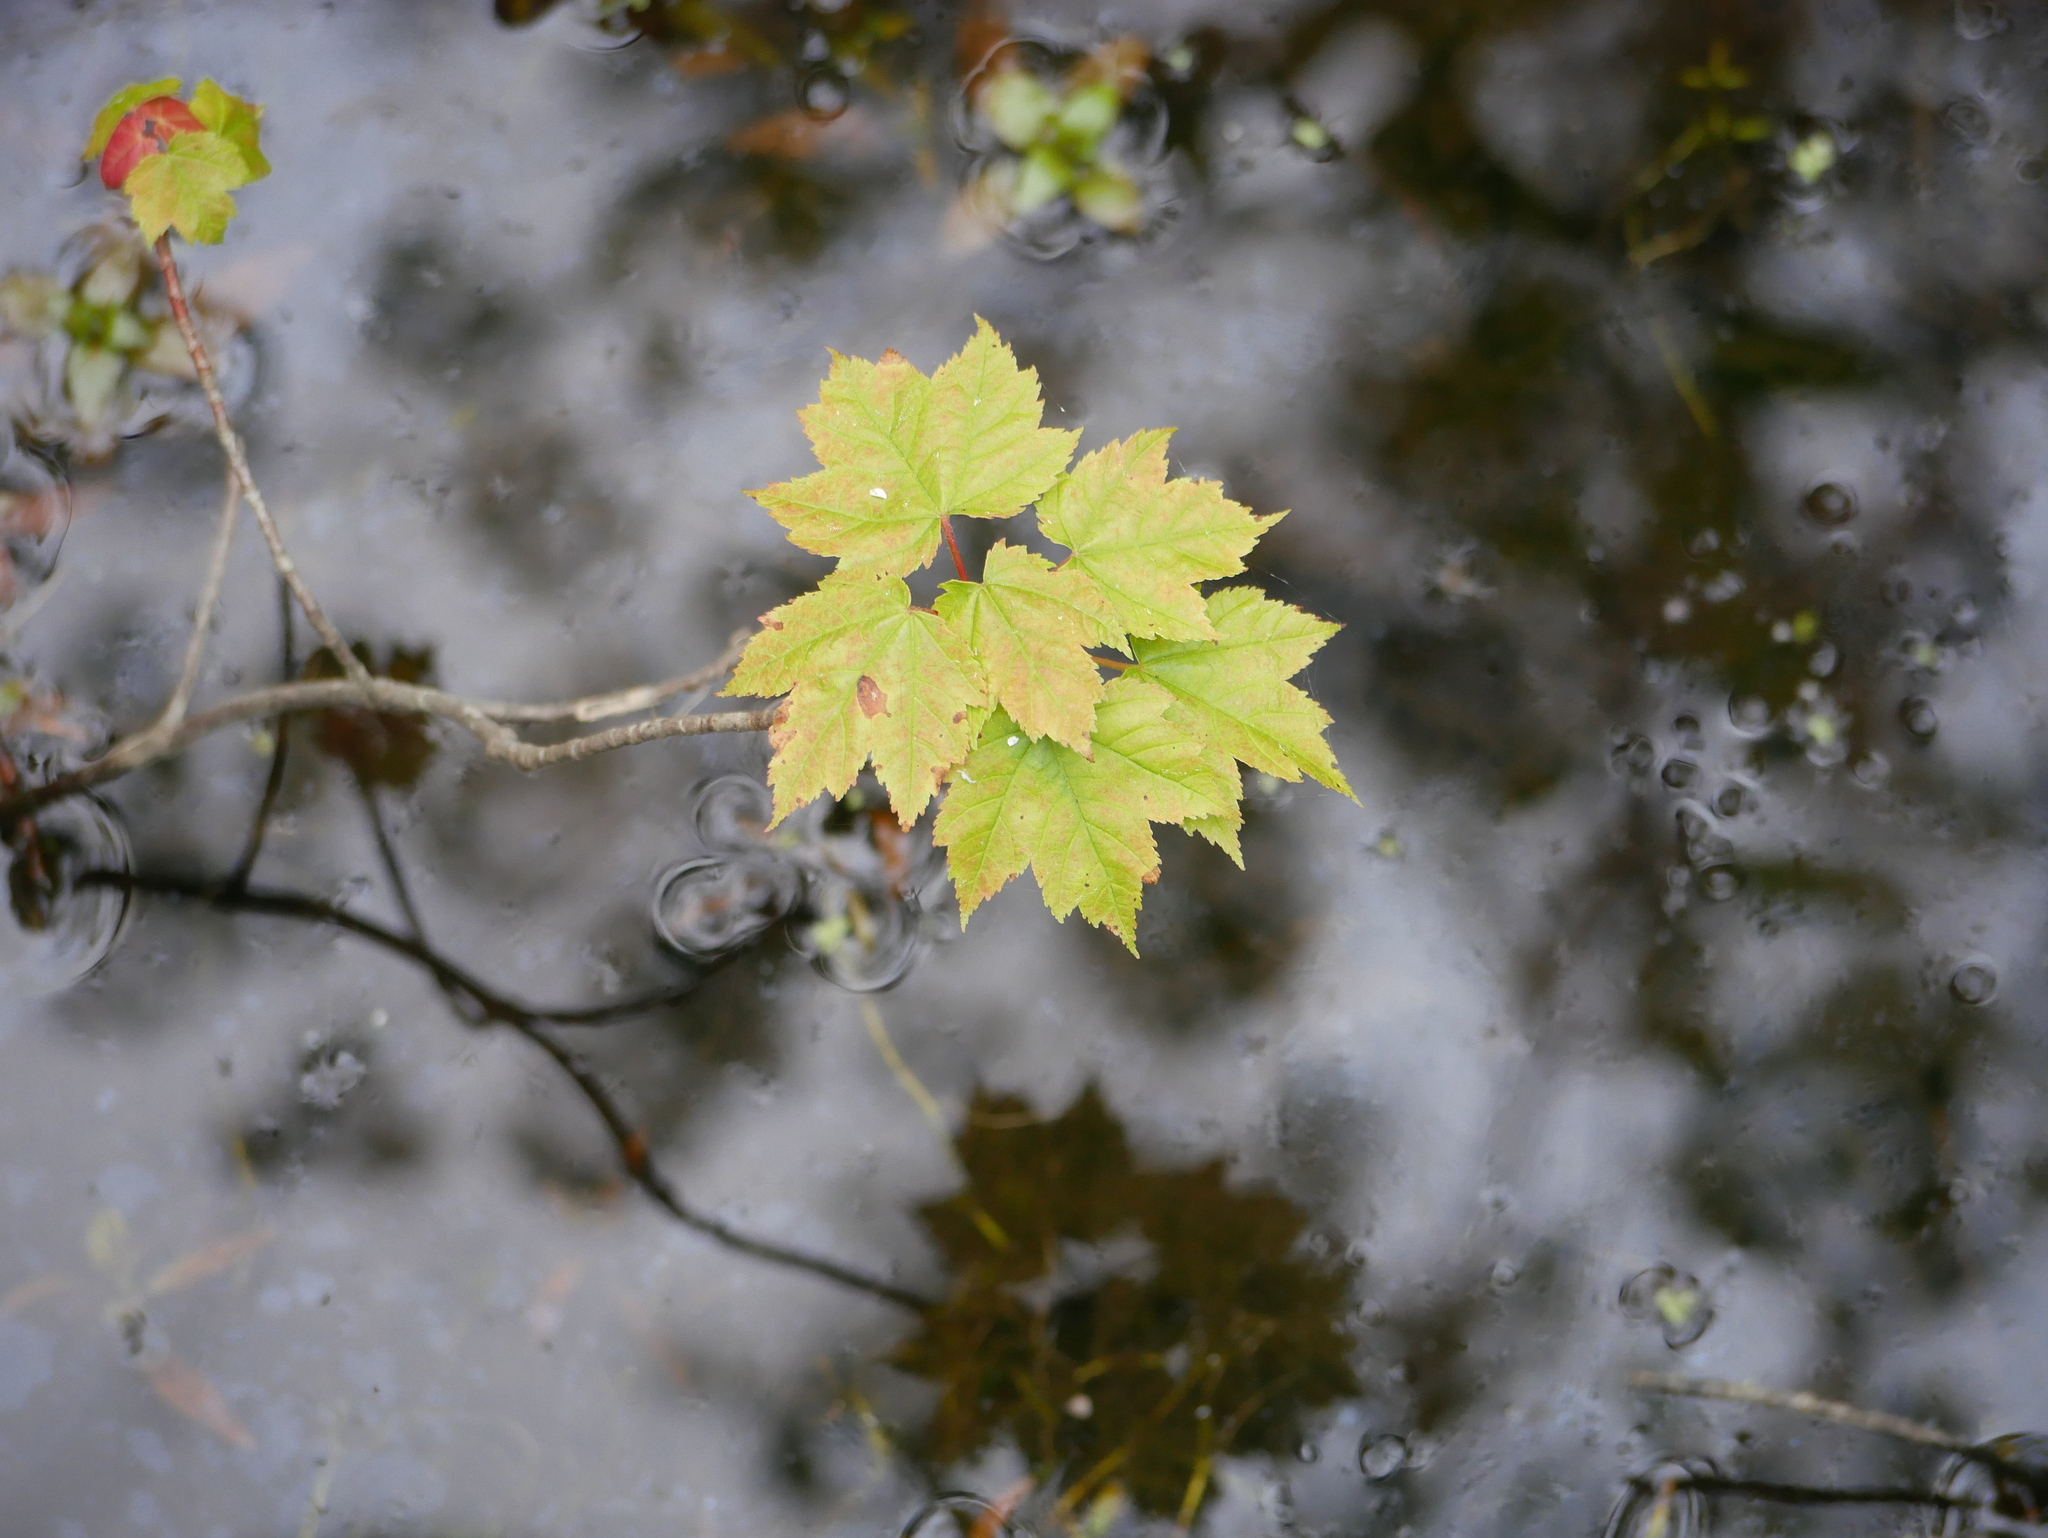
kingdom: Plantae
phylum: Tracheophyta
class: Magnoliopsida
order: Sapindales
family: Sapindaceae
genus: Acer
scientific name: Acer rubrum
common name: Red maple
